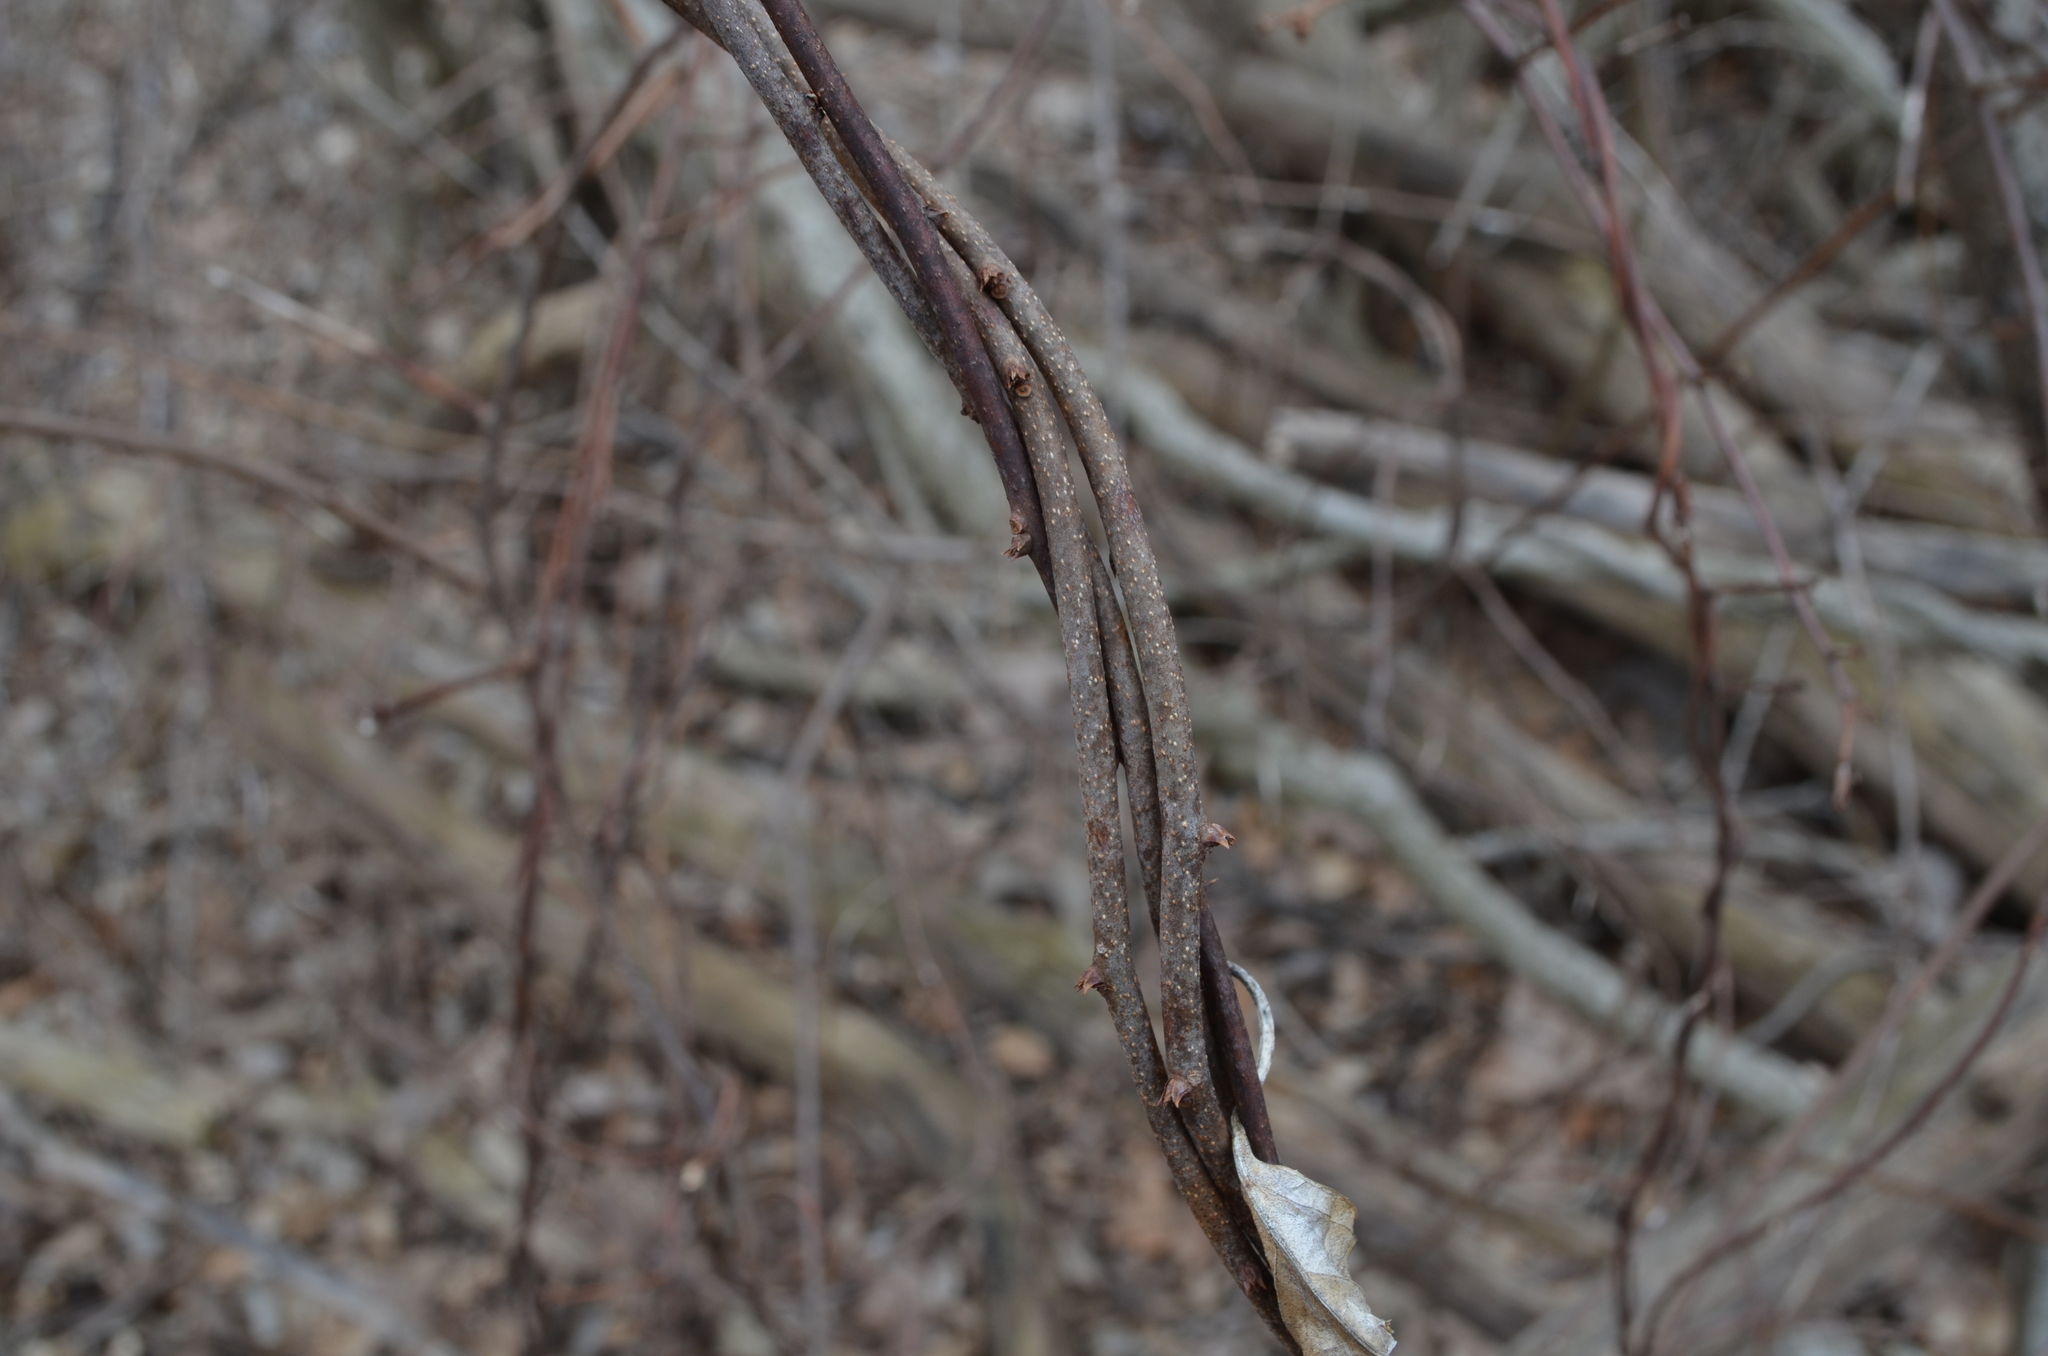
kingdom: Plantae
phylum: Tracheophyta
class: Magnoliopsida
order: Celastrales
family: Celastraceae
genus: Celastrus
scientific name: Celastrus orbiculatus
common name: Oriental bittersweet
